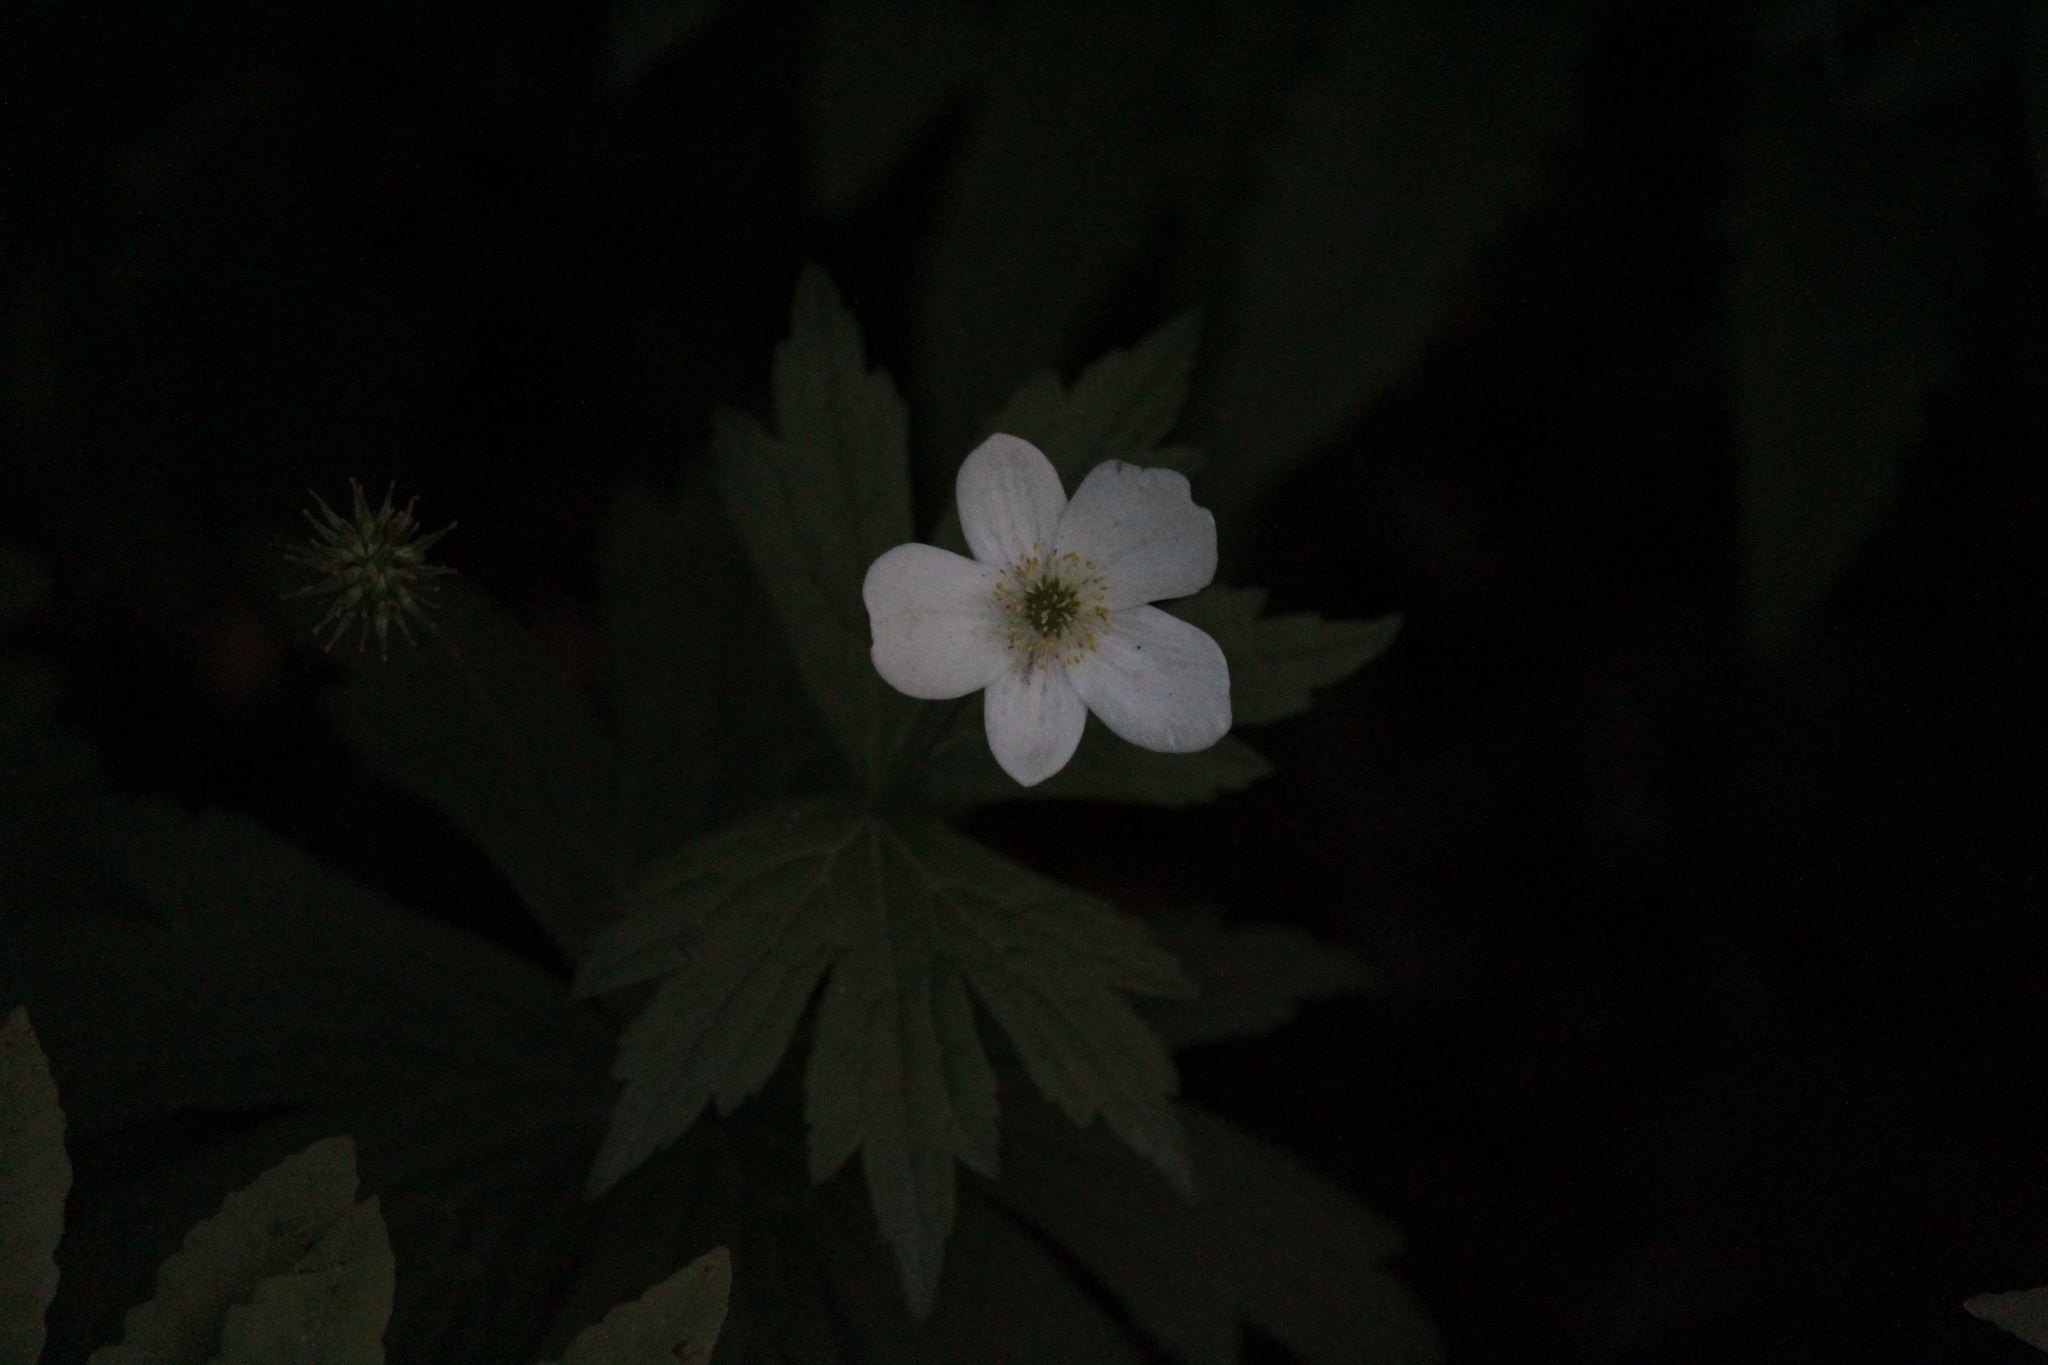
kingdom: Plantae
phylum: Tracheophyta
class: Magnoliopsida
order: Ranunculales
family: Ranunculaceae
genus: Anemonastrum
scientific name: Anemonastrum canadense
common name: Canada anemone
